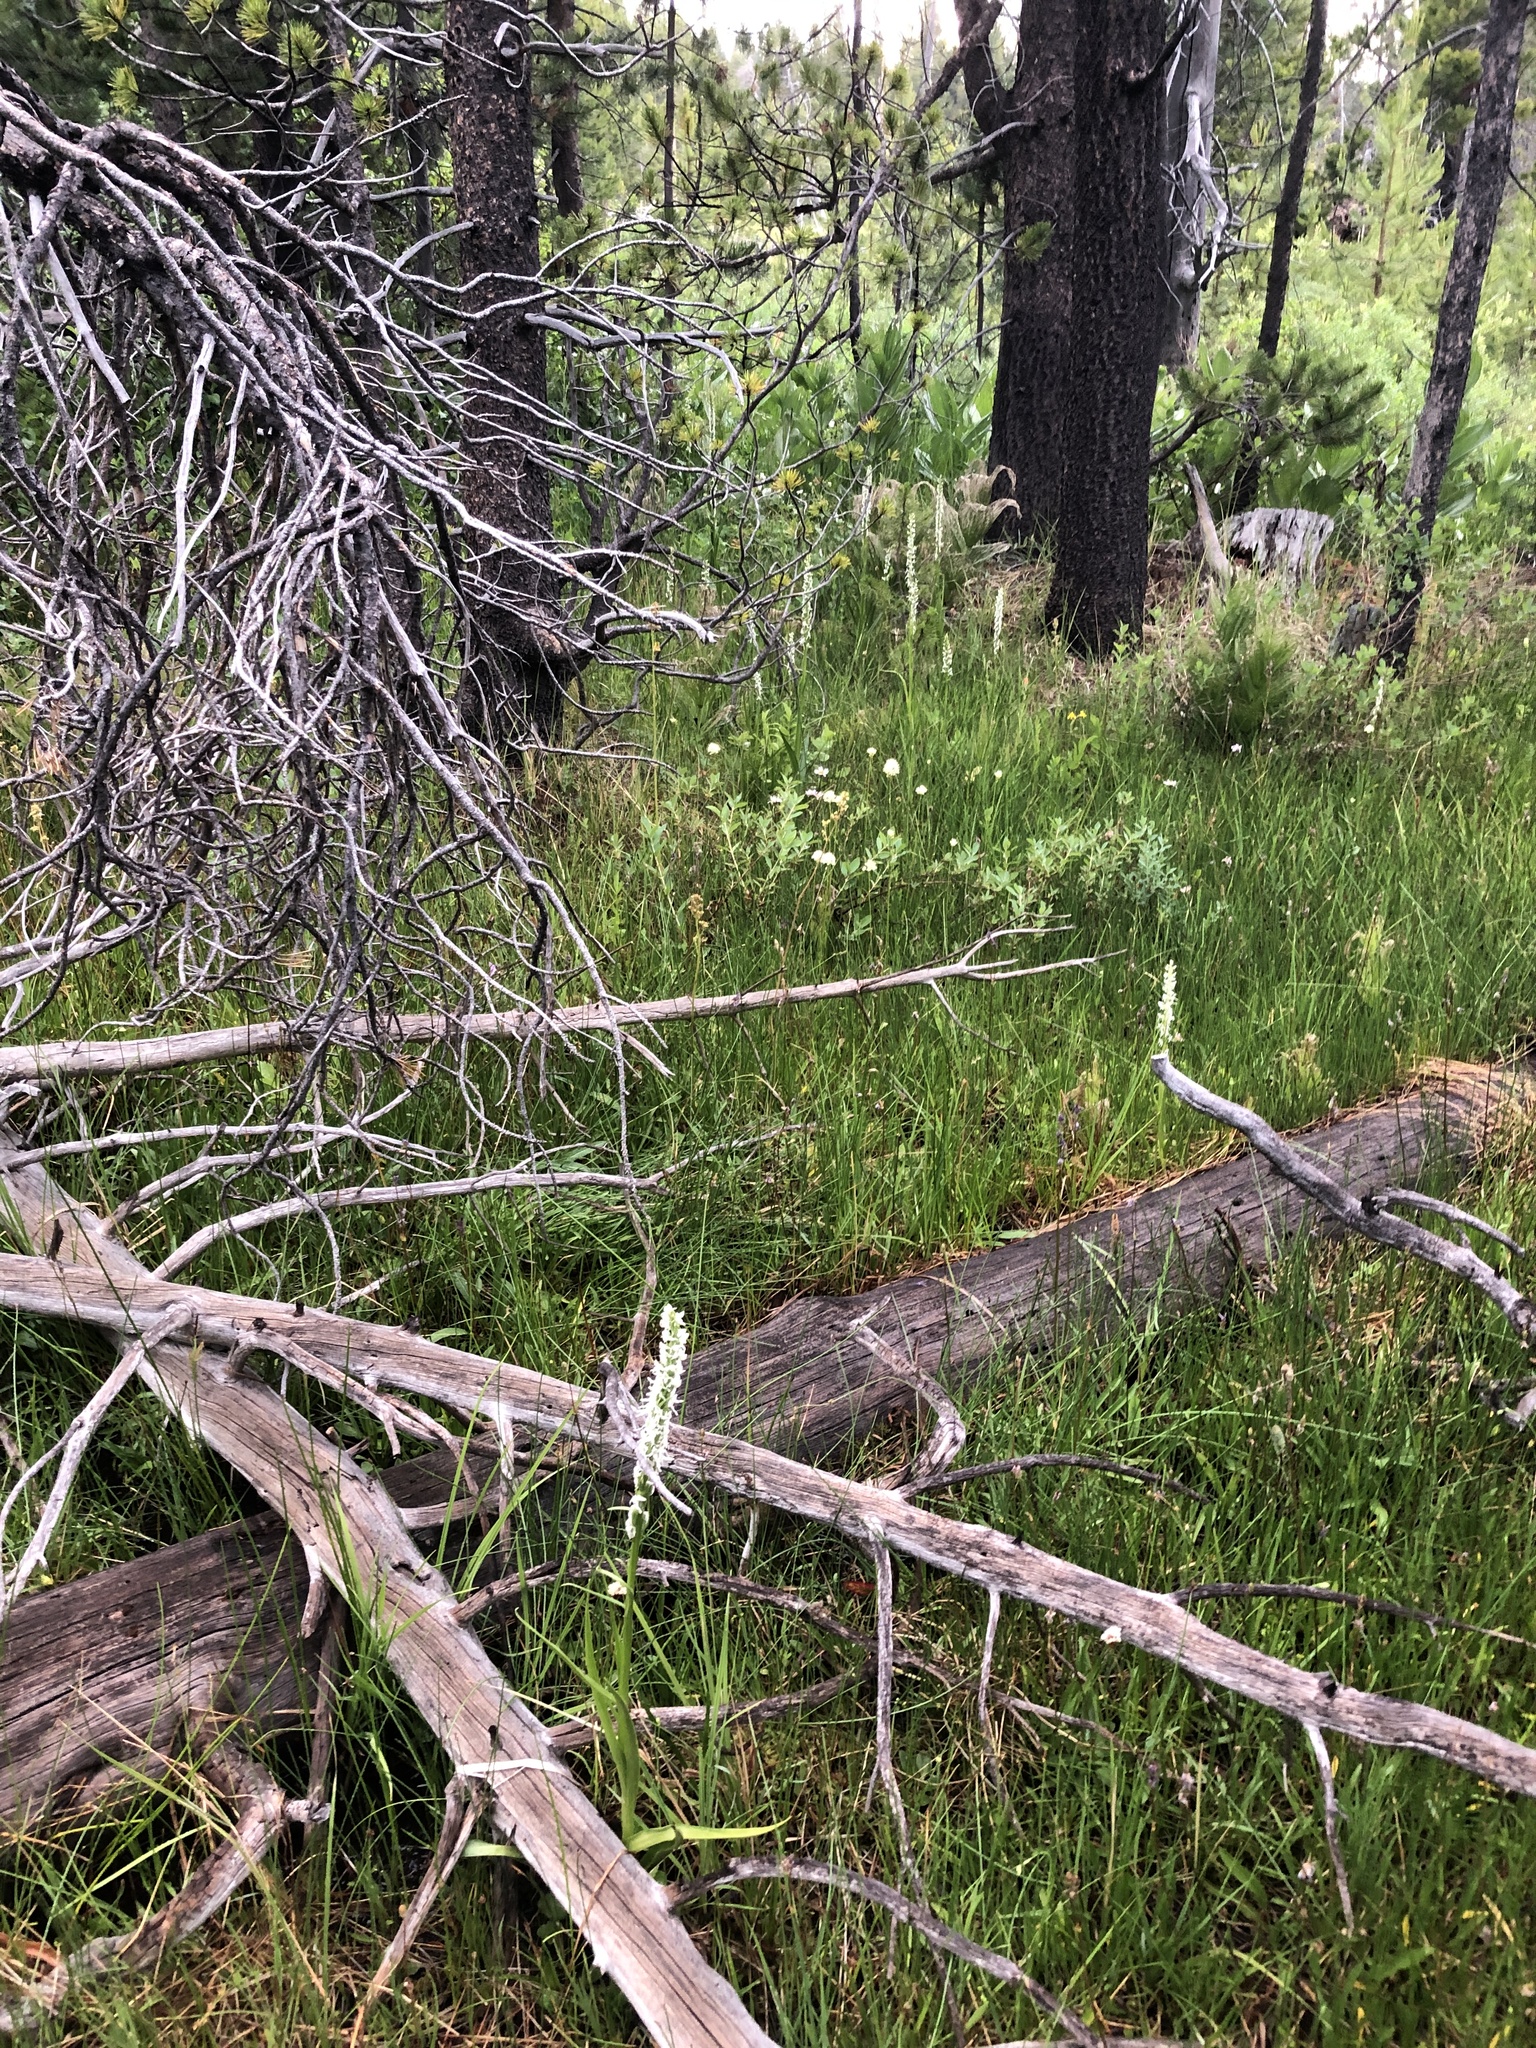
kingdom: Plantae
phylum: Tracheophyta
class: Liliopsida
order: Asparagales
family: Orchidaceae
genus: Platanthera
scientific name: Platanthera dilatata
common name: Bog candles
